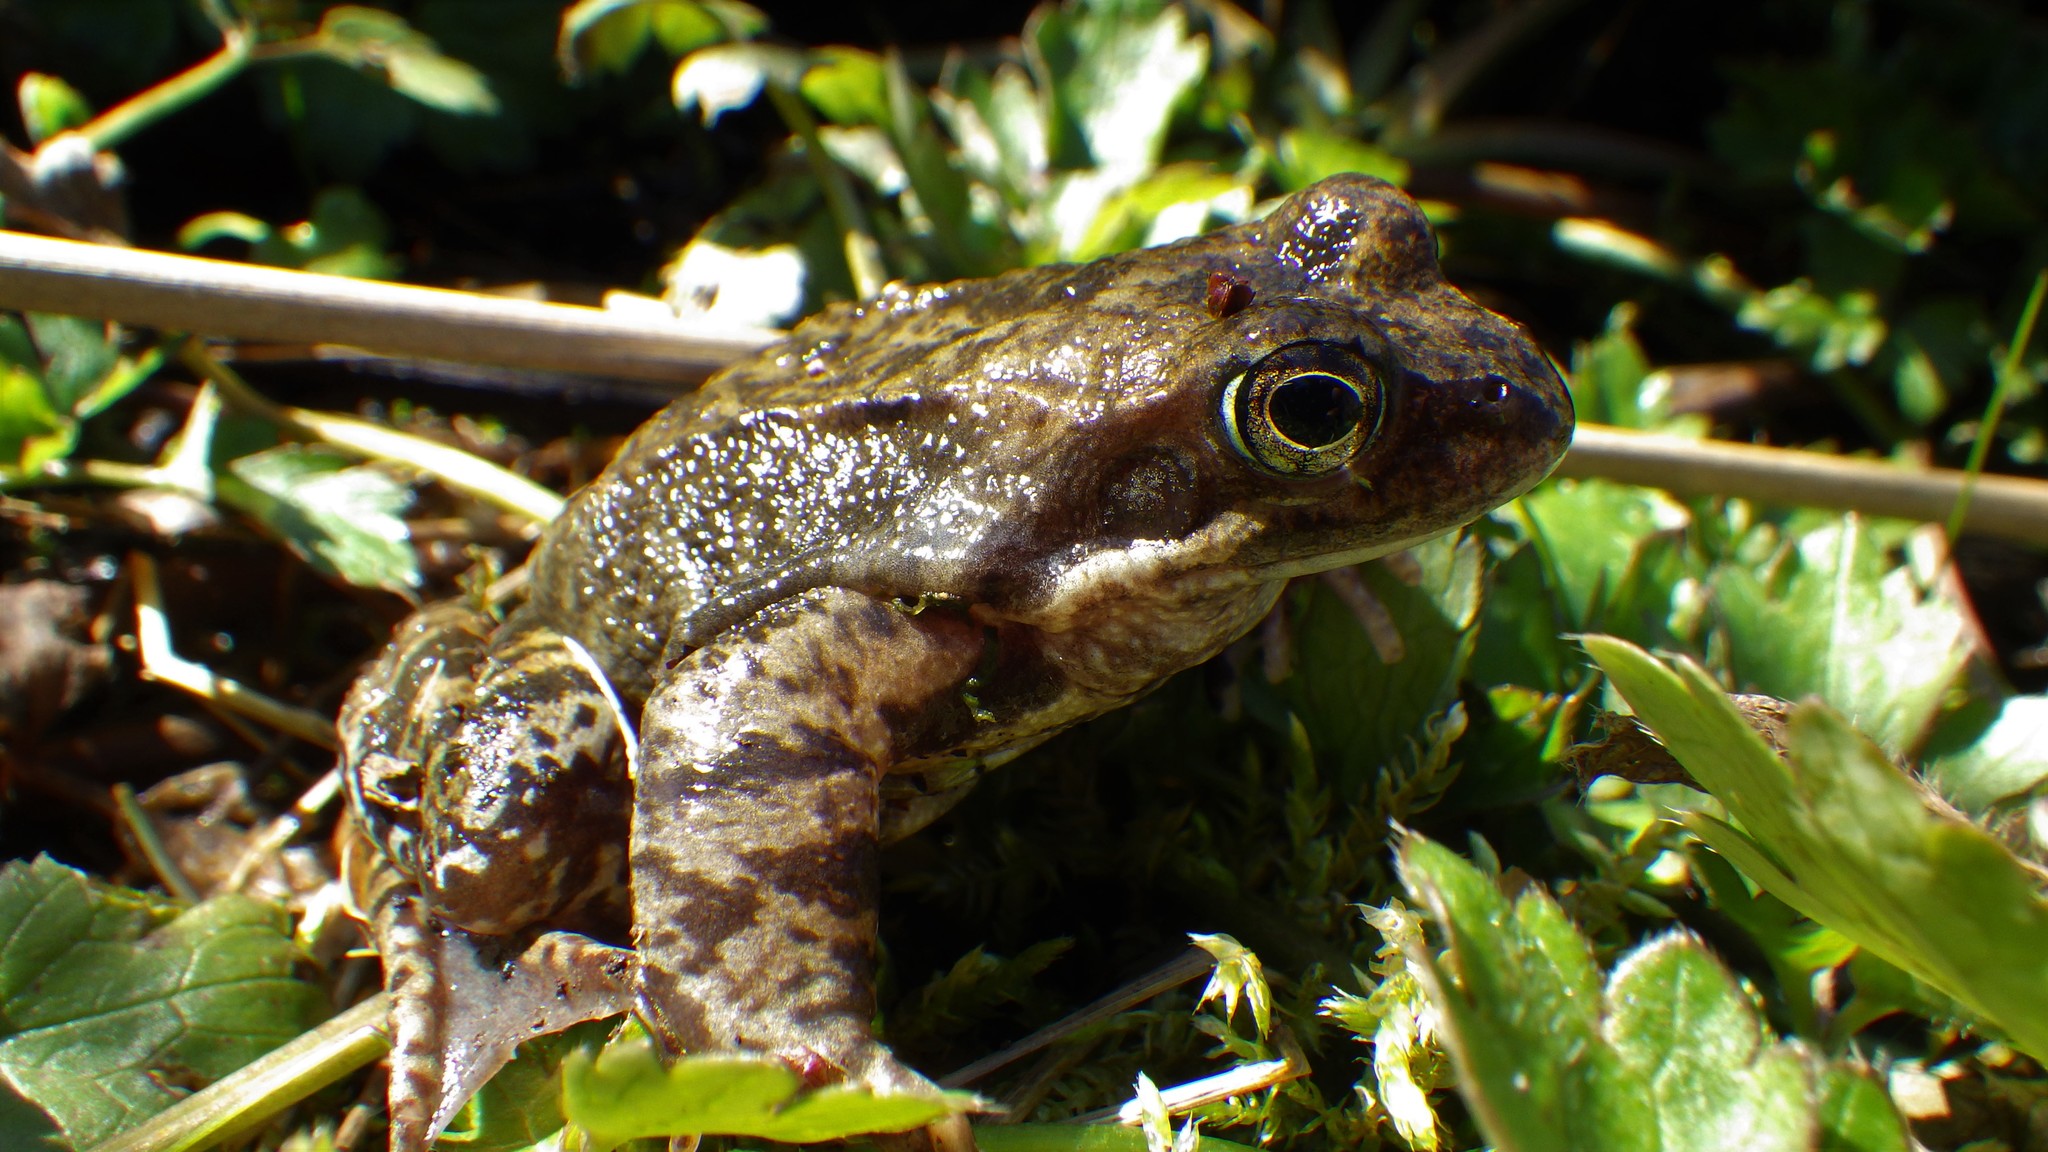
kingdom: Animalia
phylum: Chordata
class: Amphibia
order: Anura
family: Ranidae
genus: Rana
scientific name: Rana temporaria
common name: Common frog
